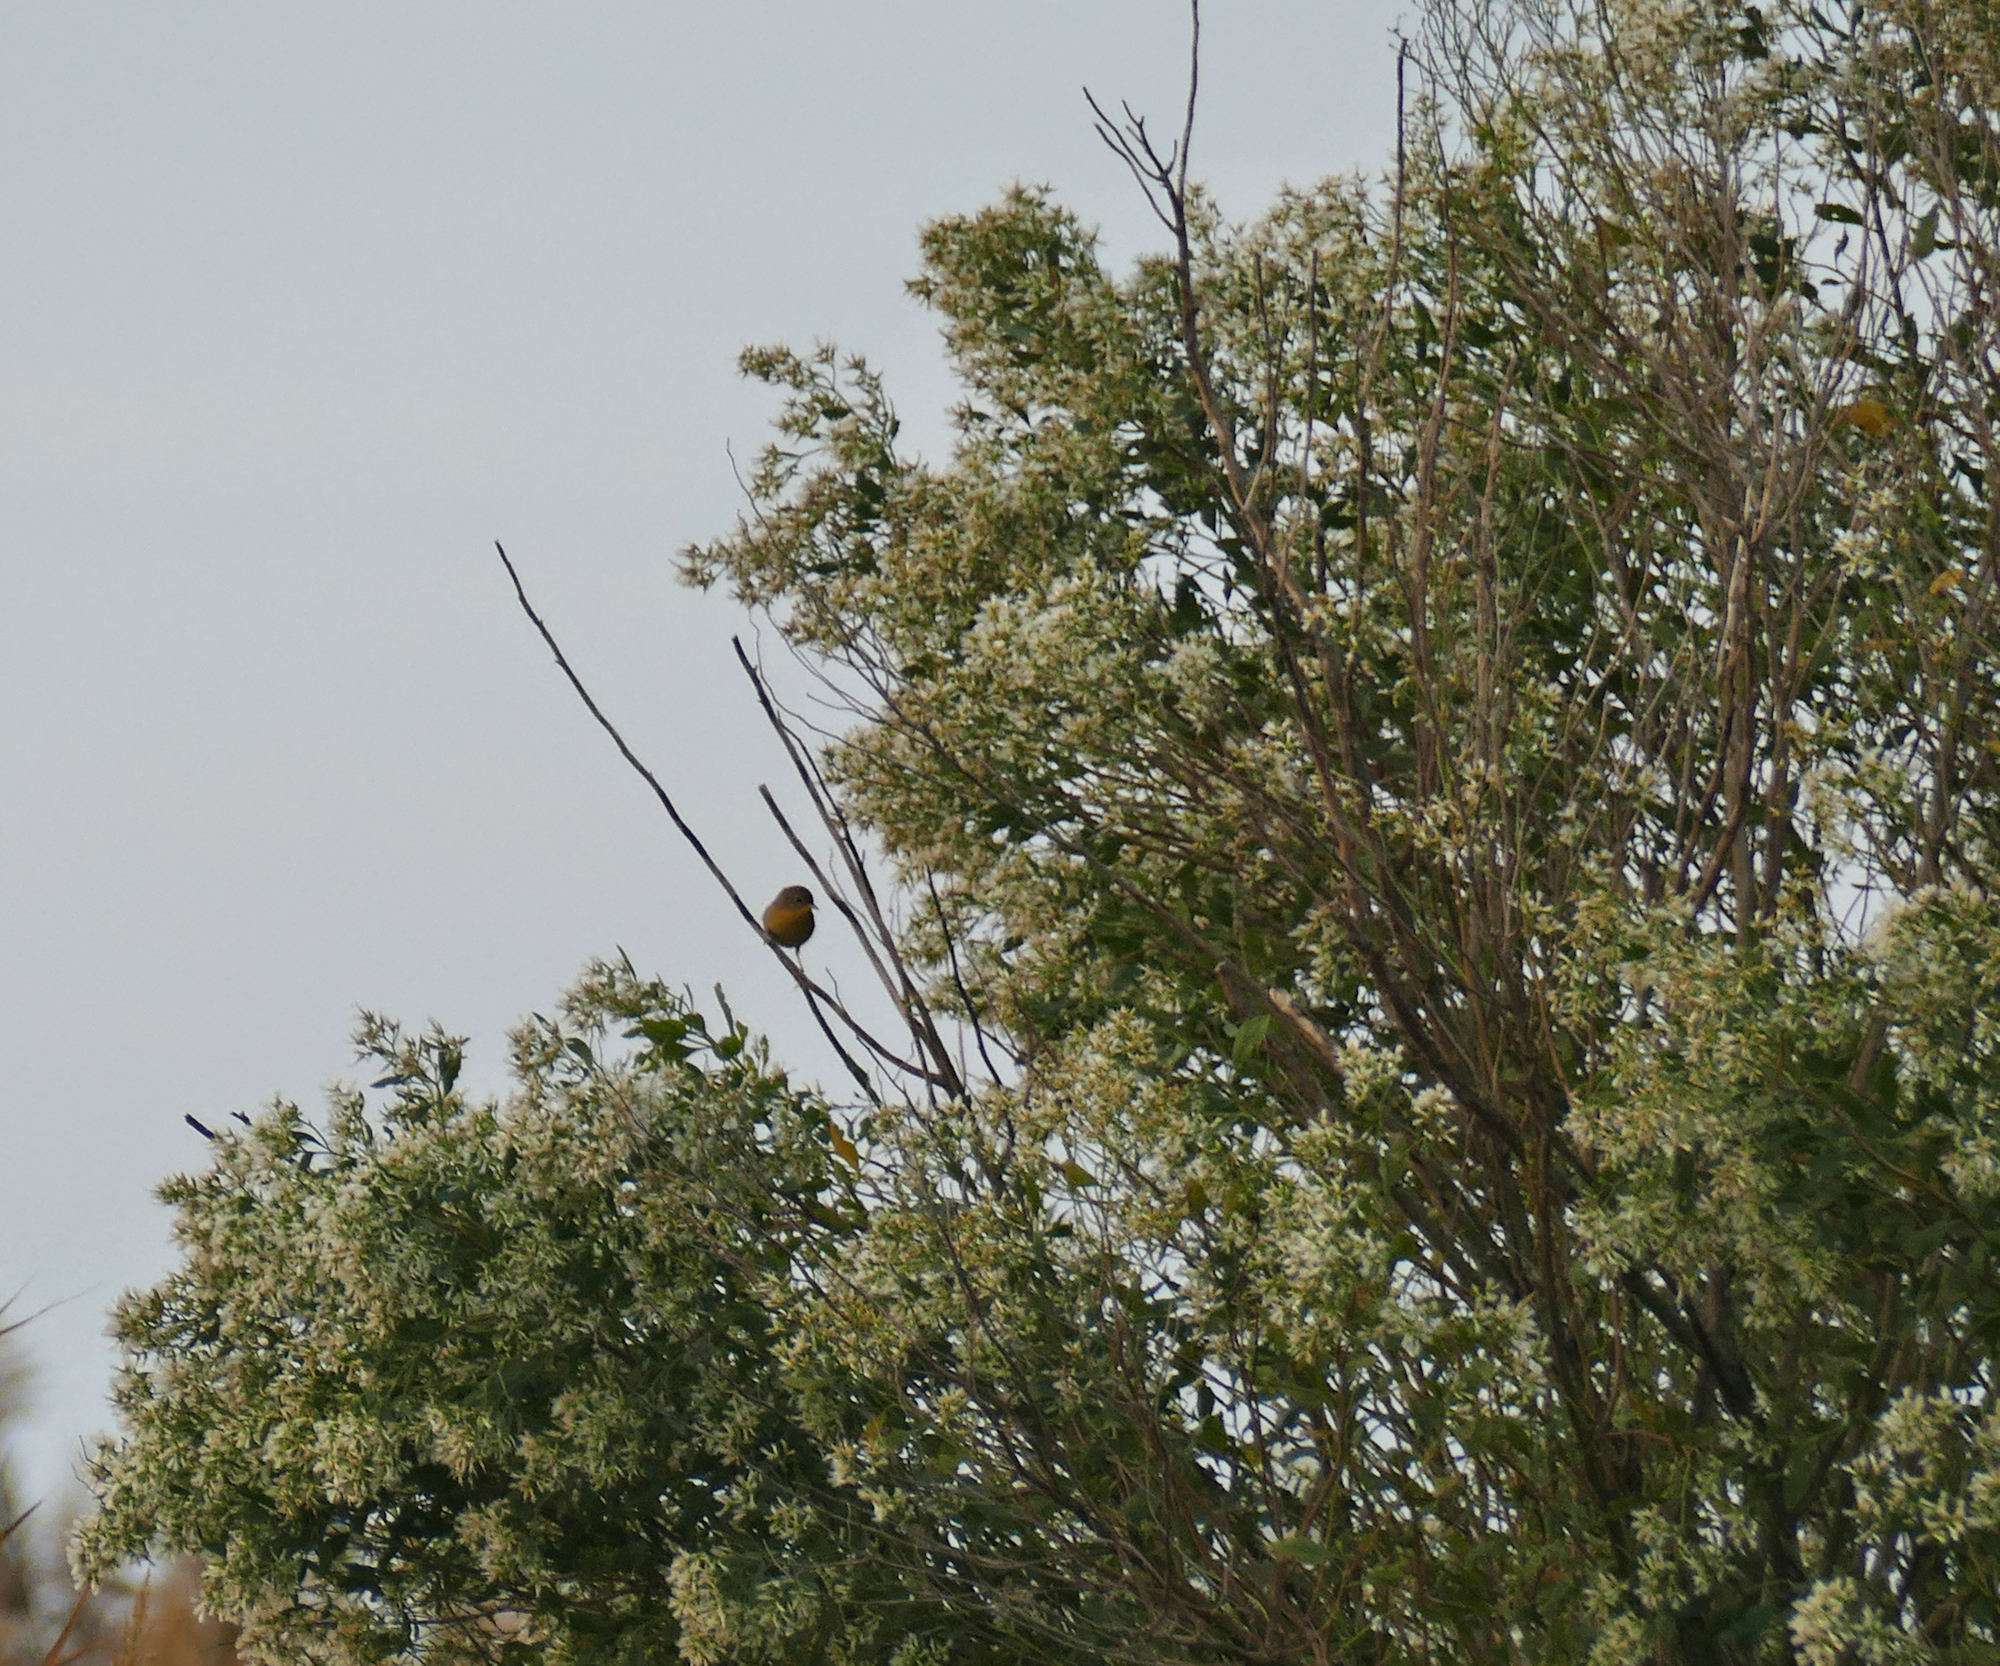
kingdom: Plantae
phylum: Tracheophyta
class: Magnoliopsida
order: Asterales
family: Asteraceae
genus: Baccharis
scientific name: Baccharis halimifolia
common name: Eastern baccharis
